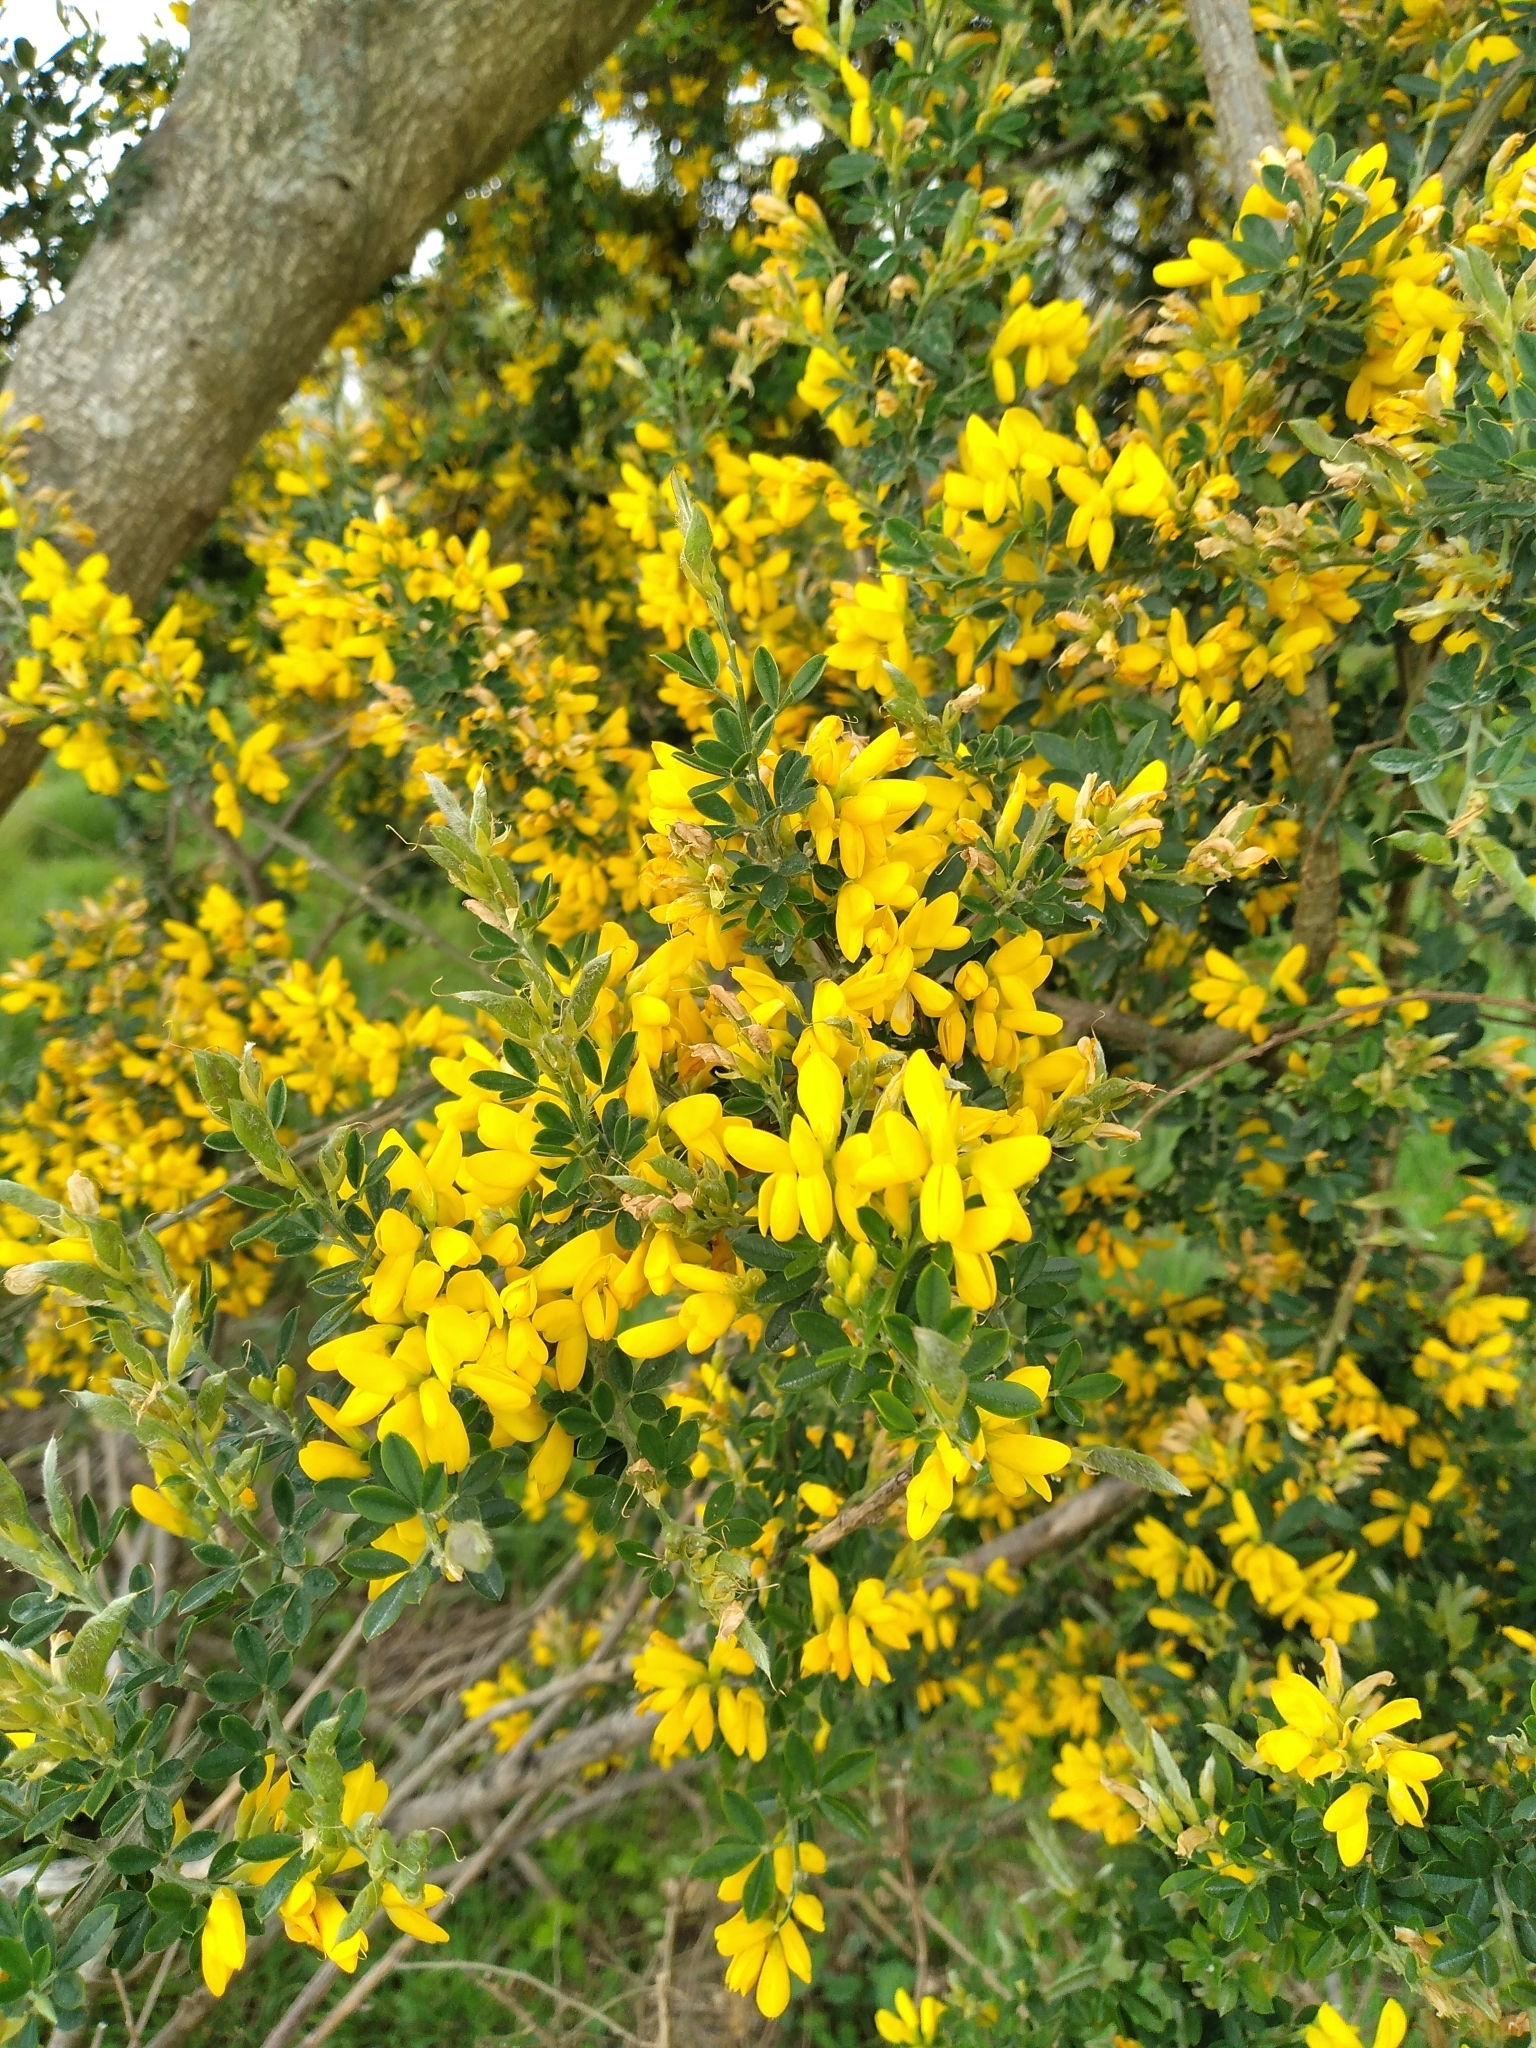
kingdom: Plantae
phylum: Tracheophyta
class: Magnoliopsida
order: Fabales
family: Fabaceae
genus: Genista
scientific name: Genista monspessulana
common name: Montpellier broom
